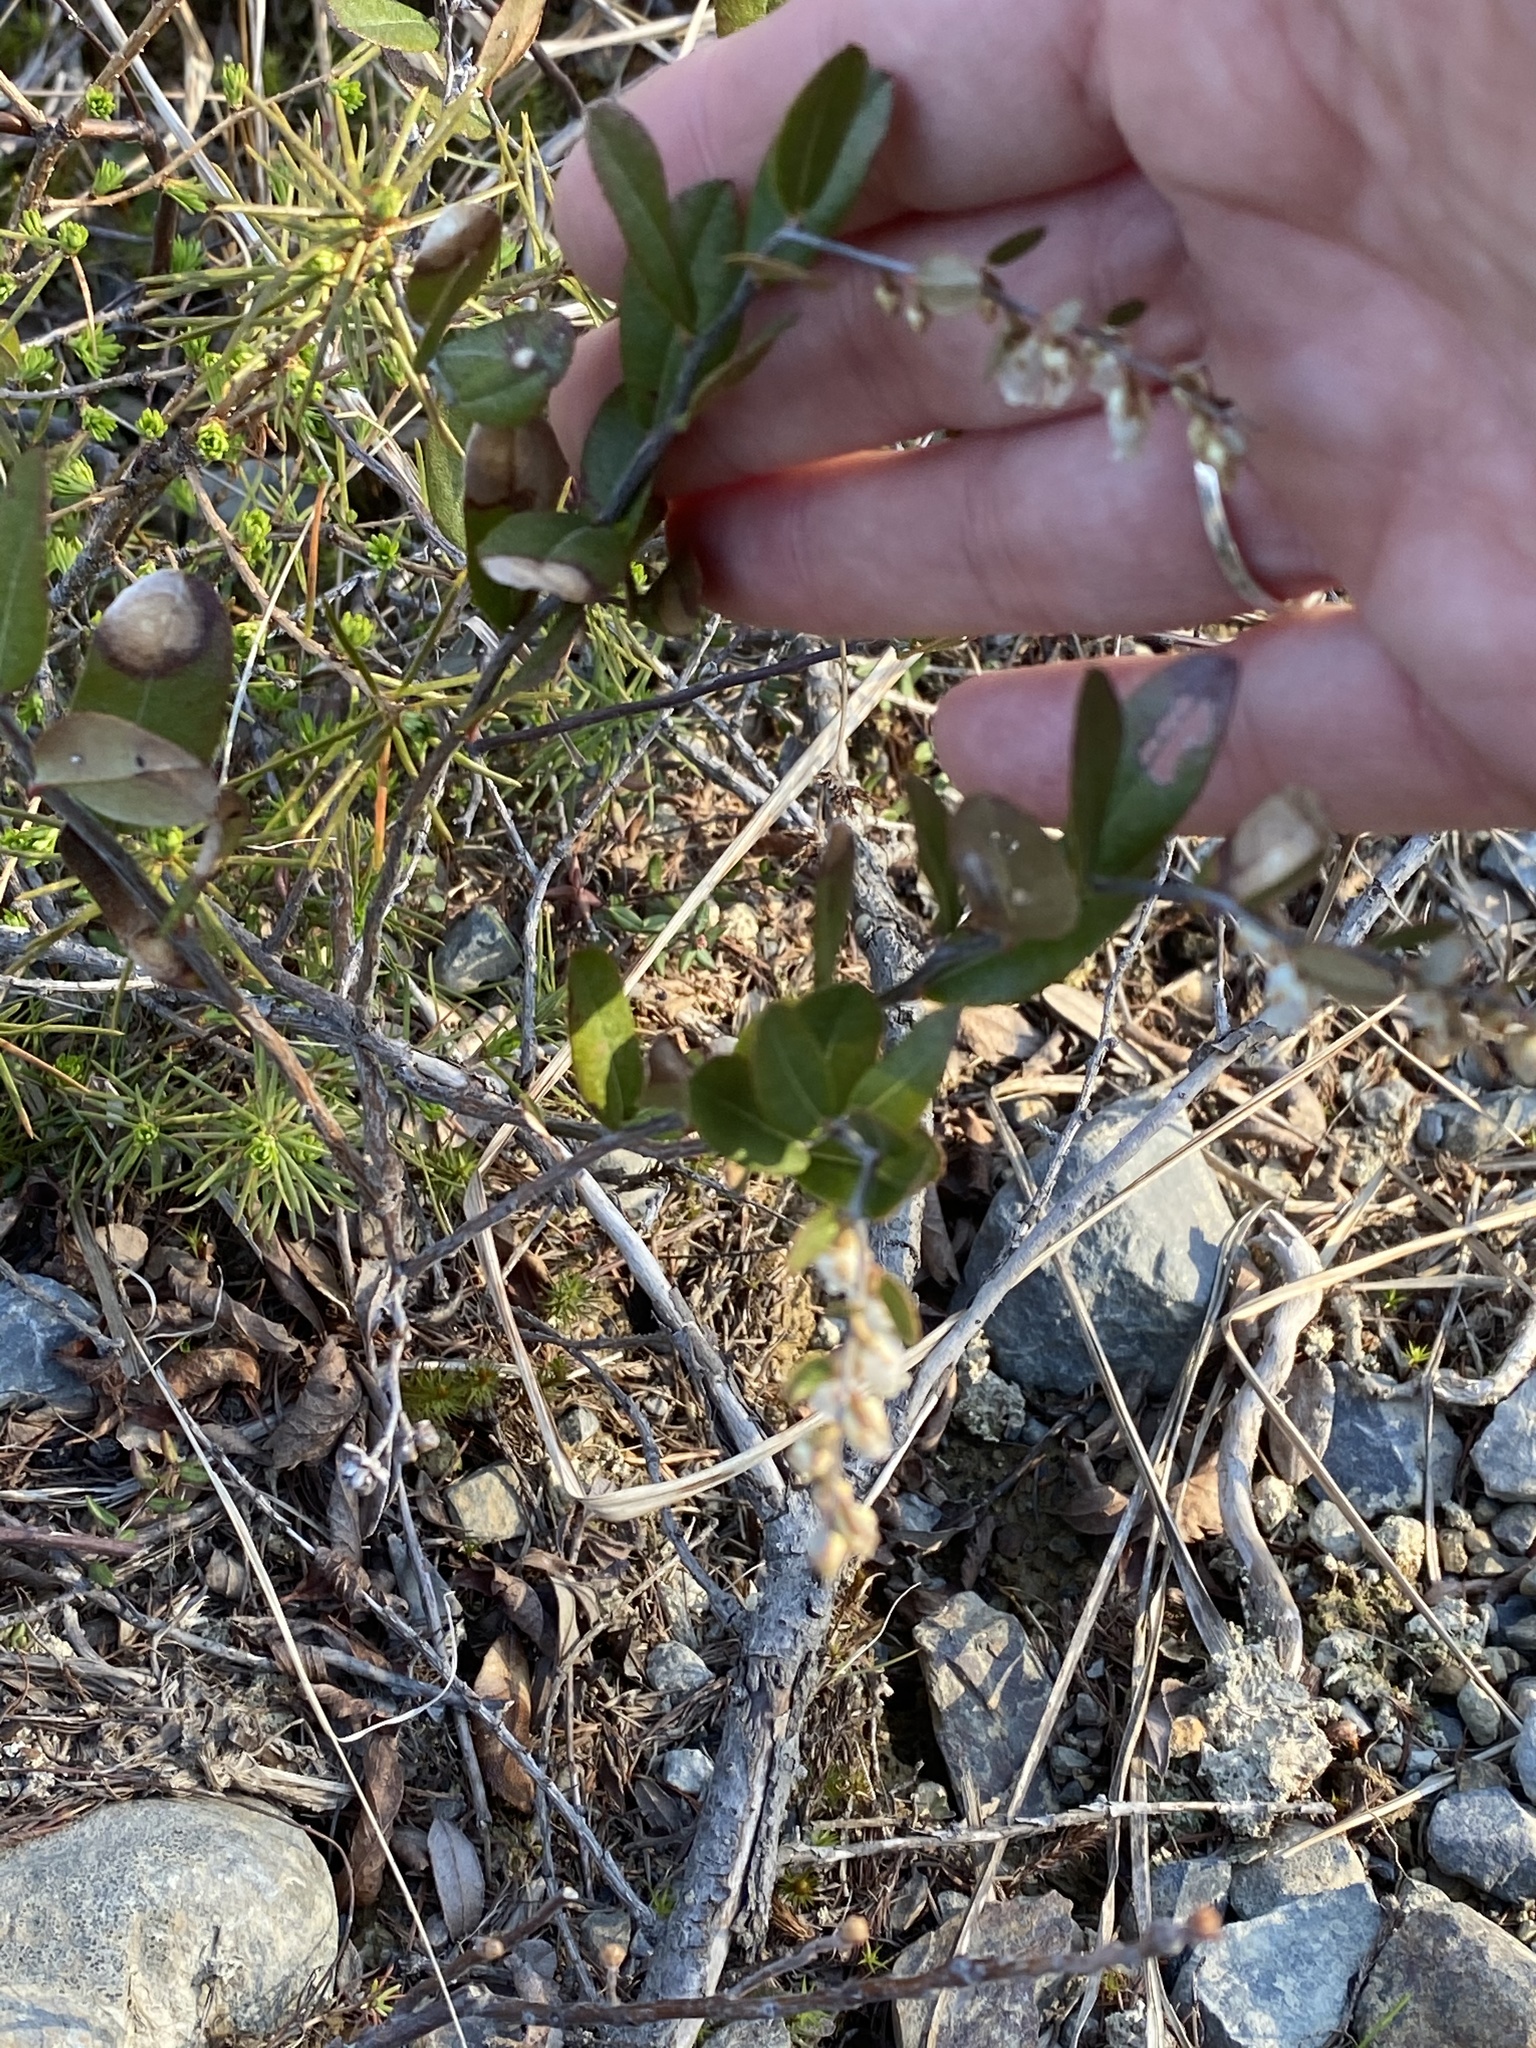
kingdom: Plantae
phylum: Tracheophyta
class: Magnoliopsida
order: Ericales
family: Ericaceae
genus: Chamaedaphne
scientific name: Chamaedaphne calyculata
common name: Leatherleaf
